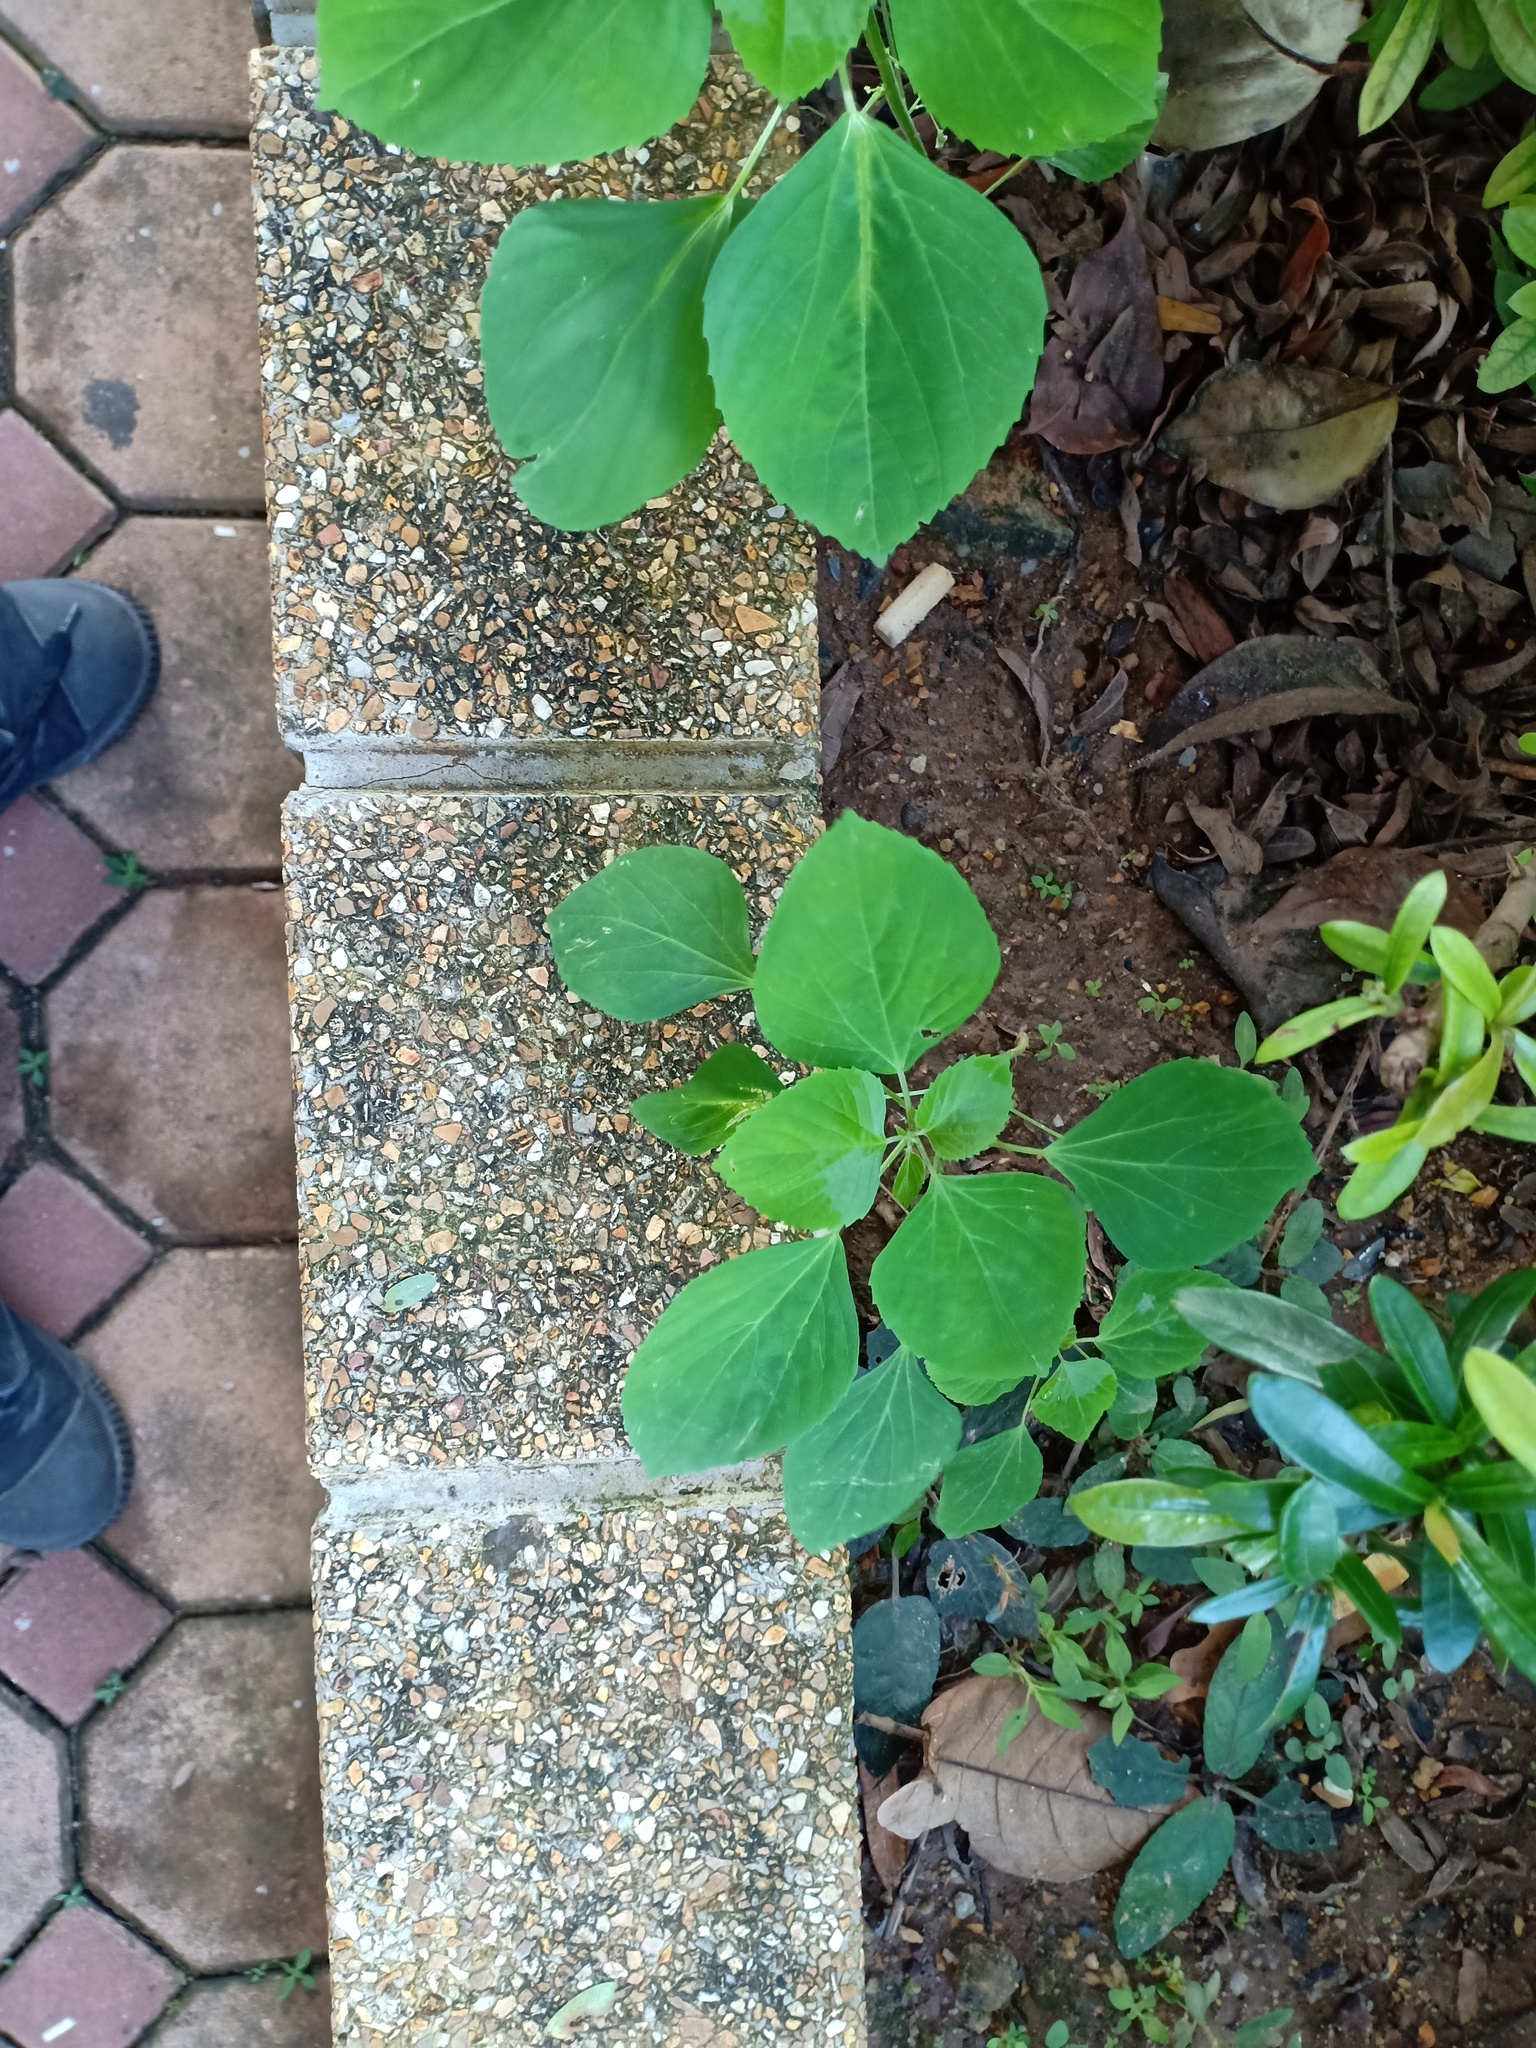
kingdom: Plantae
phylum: Tracheophyta
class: Magnoliopsida
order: Malpighiales
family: Euphorbiaceae
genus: Acalypha
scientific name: Acalypha indica
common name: Indian acalypha
